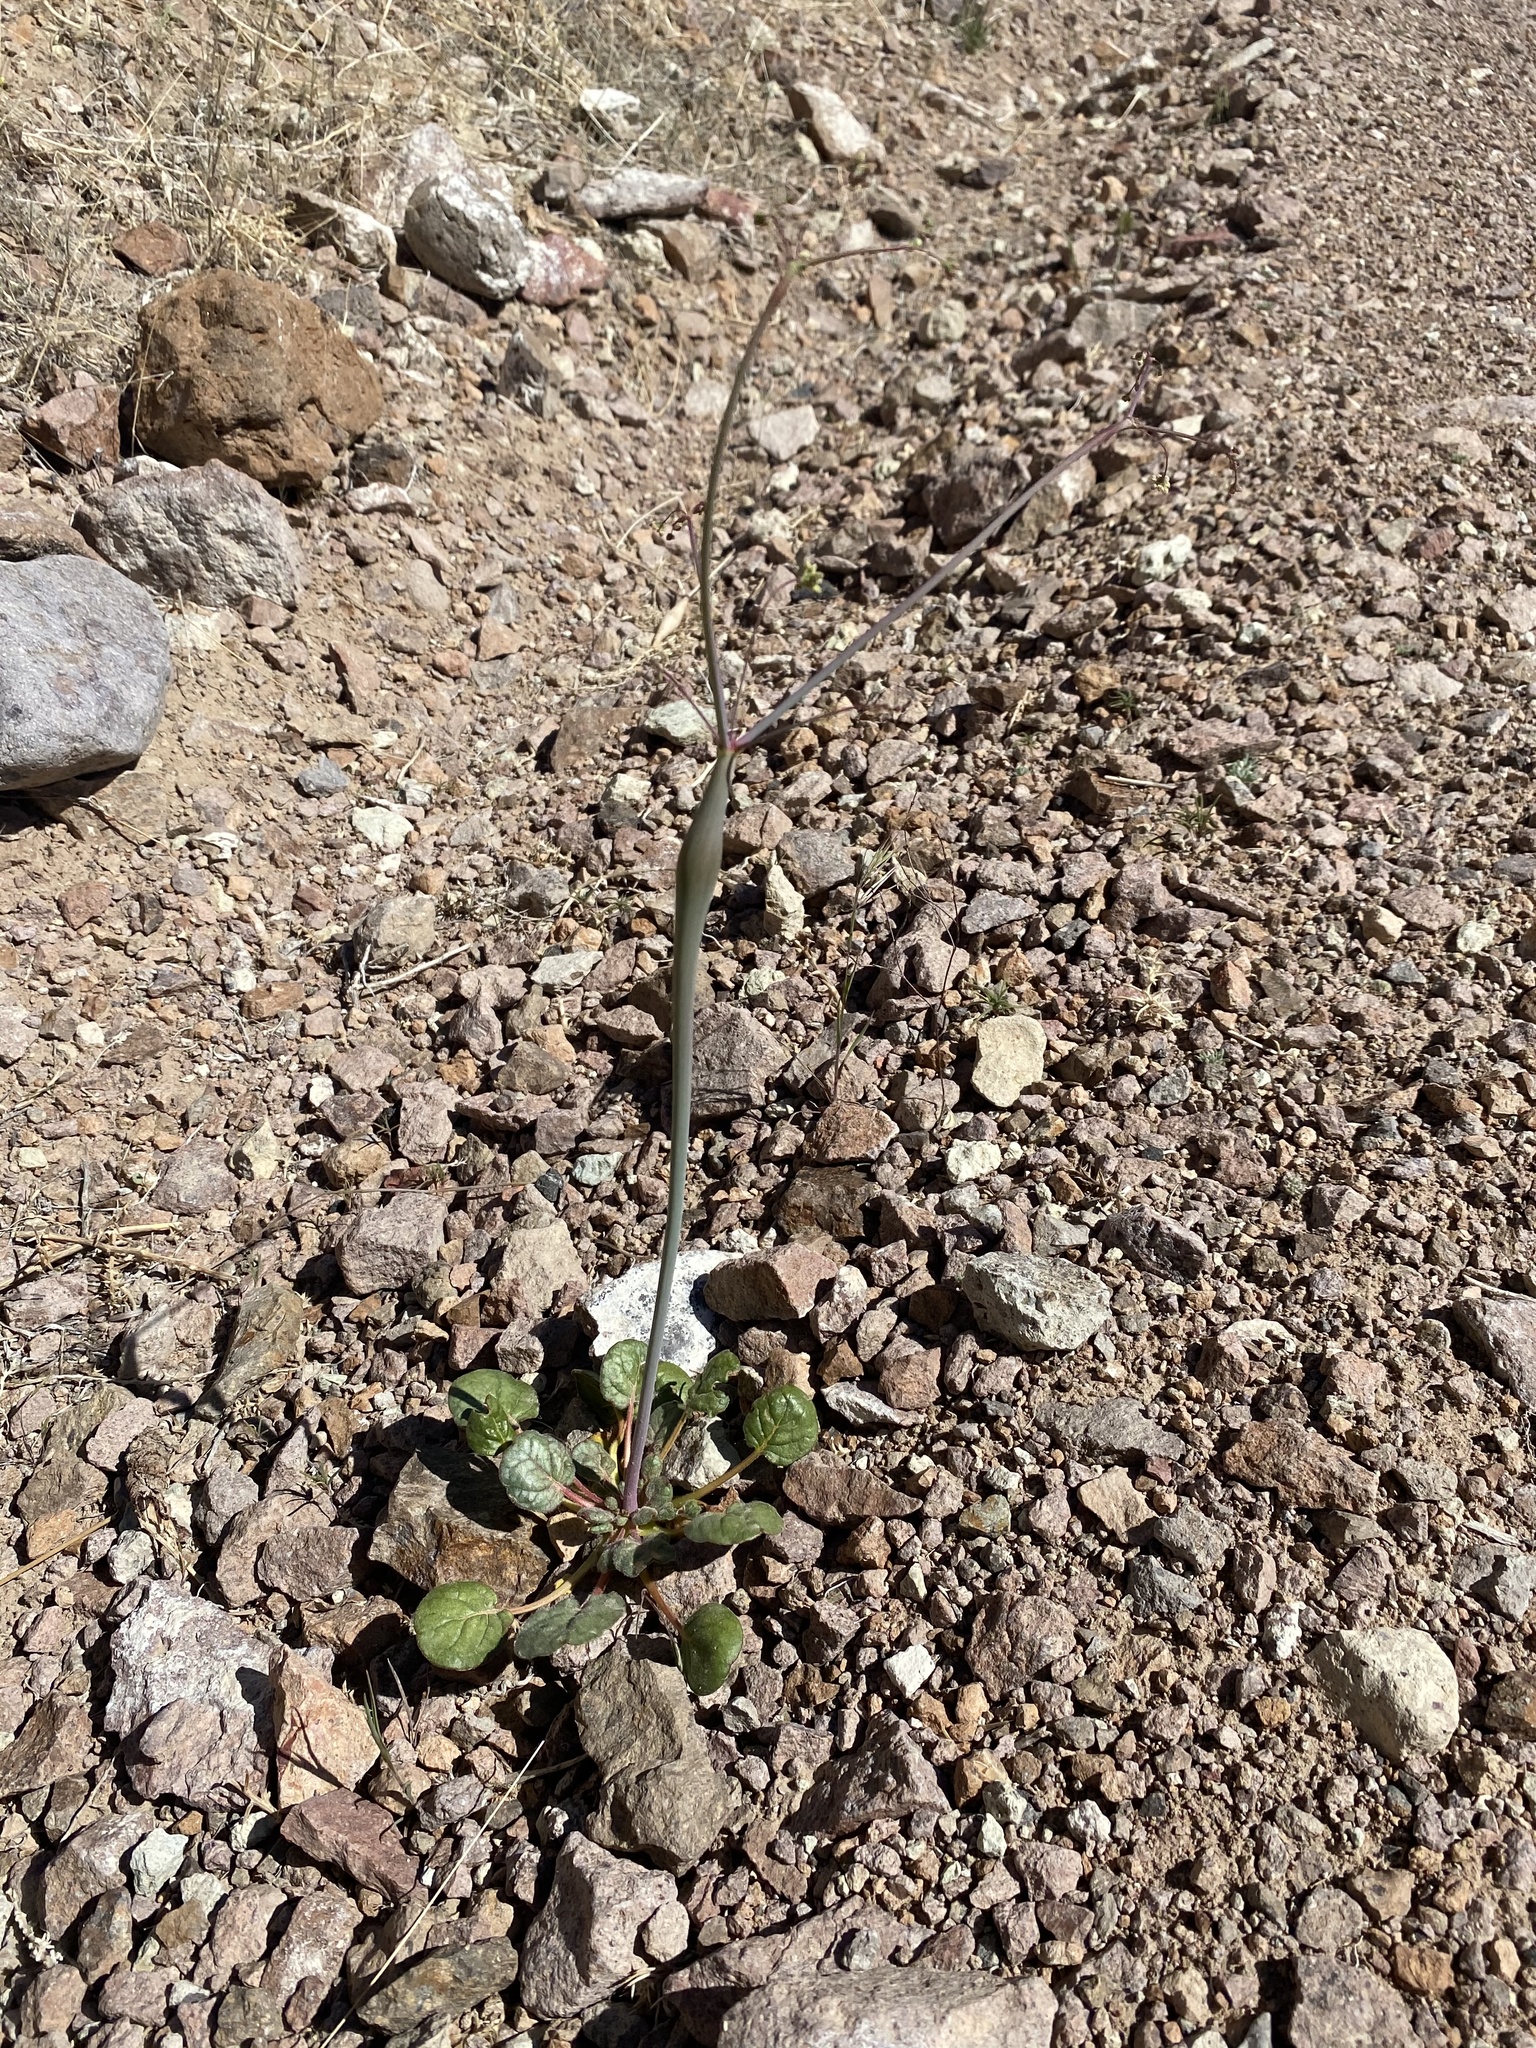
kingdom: Plantae
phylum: Tracheophyta
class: Magnoliopsida
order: Caryophyllales
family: Polygonaceae
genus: Eriogonum
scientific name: Eriogonum inflatum
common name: Desert trumpet
